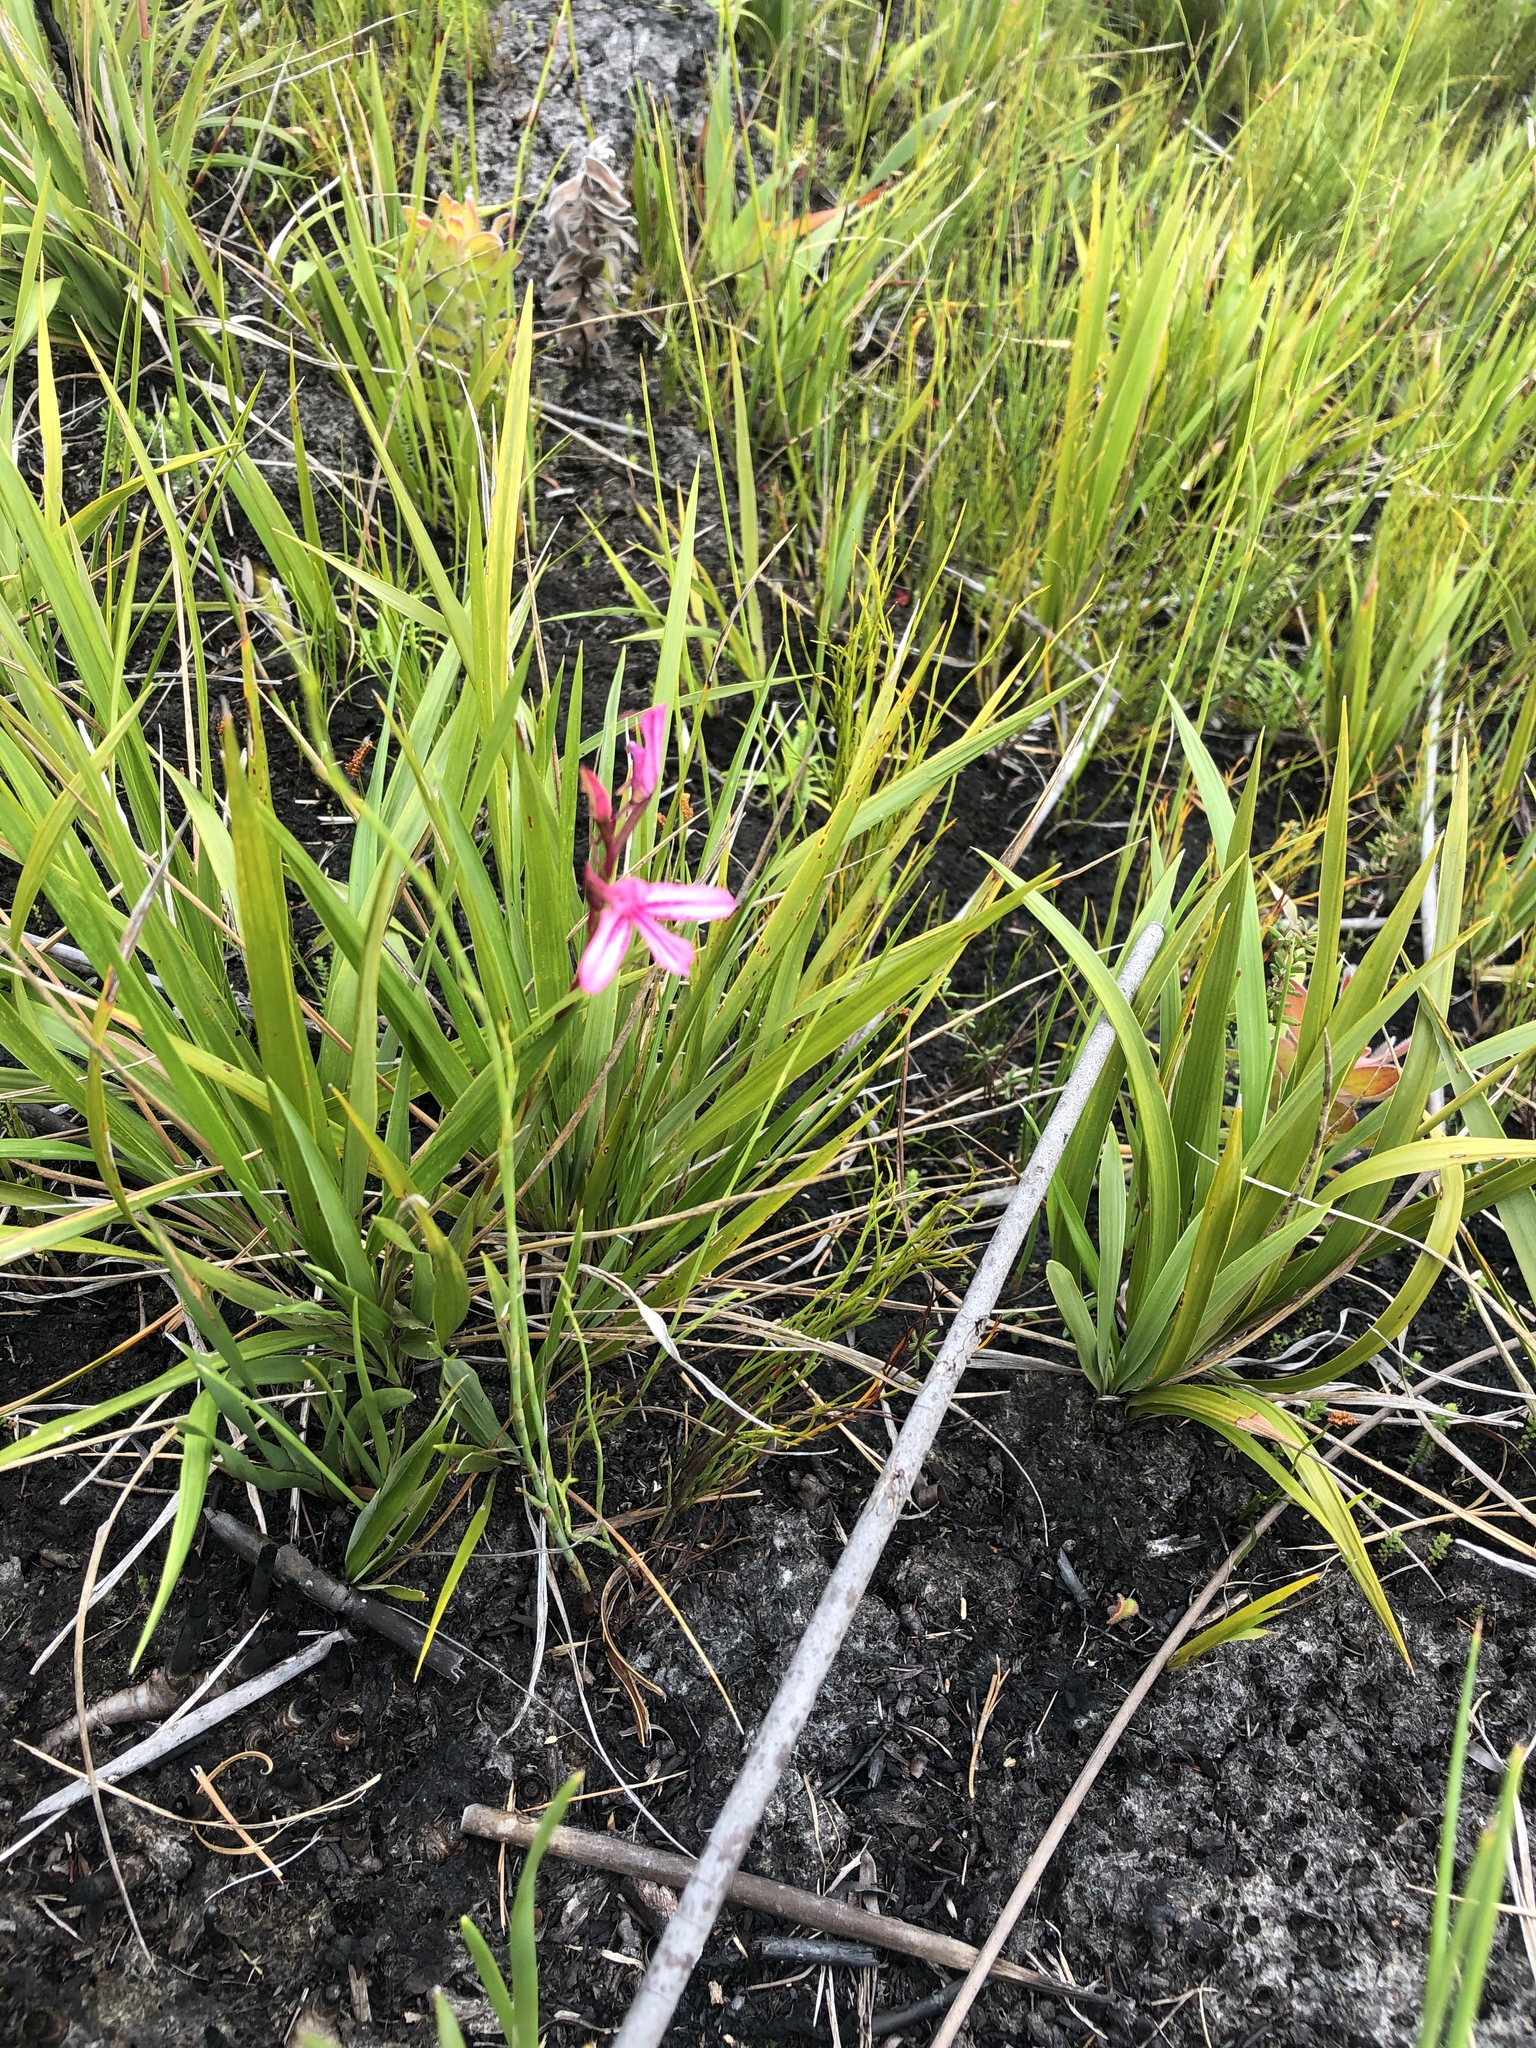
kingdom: Plantae
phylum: Tracheophyta
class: Liliopsida
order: Asparagales
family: Orchidaceae
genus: Disa
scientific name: Disa gladioliflora
